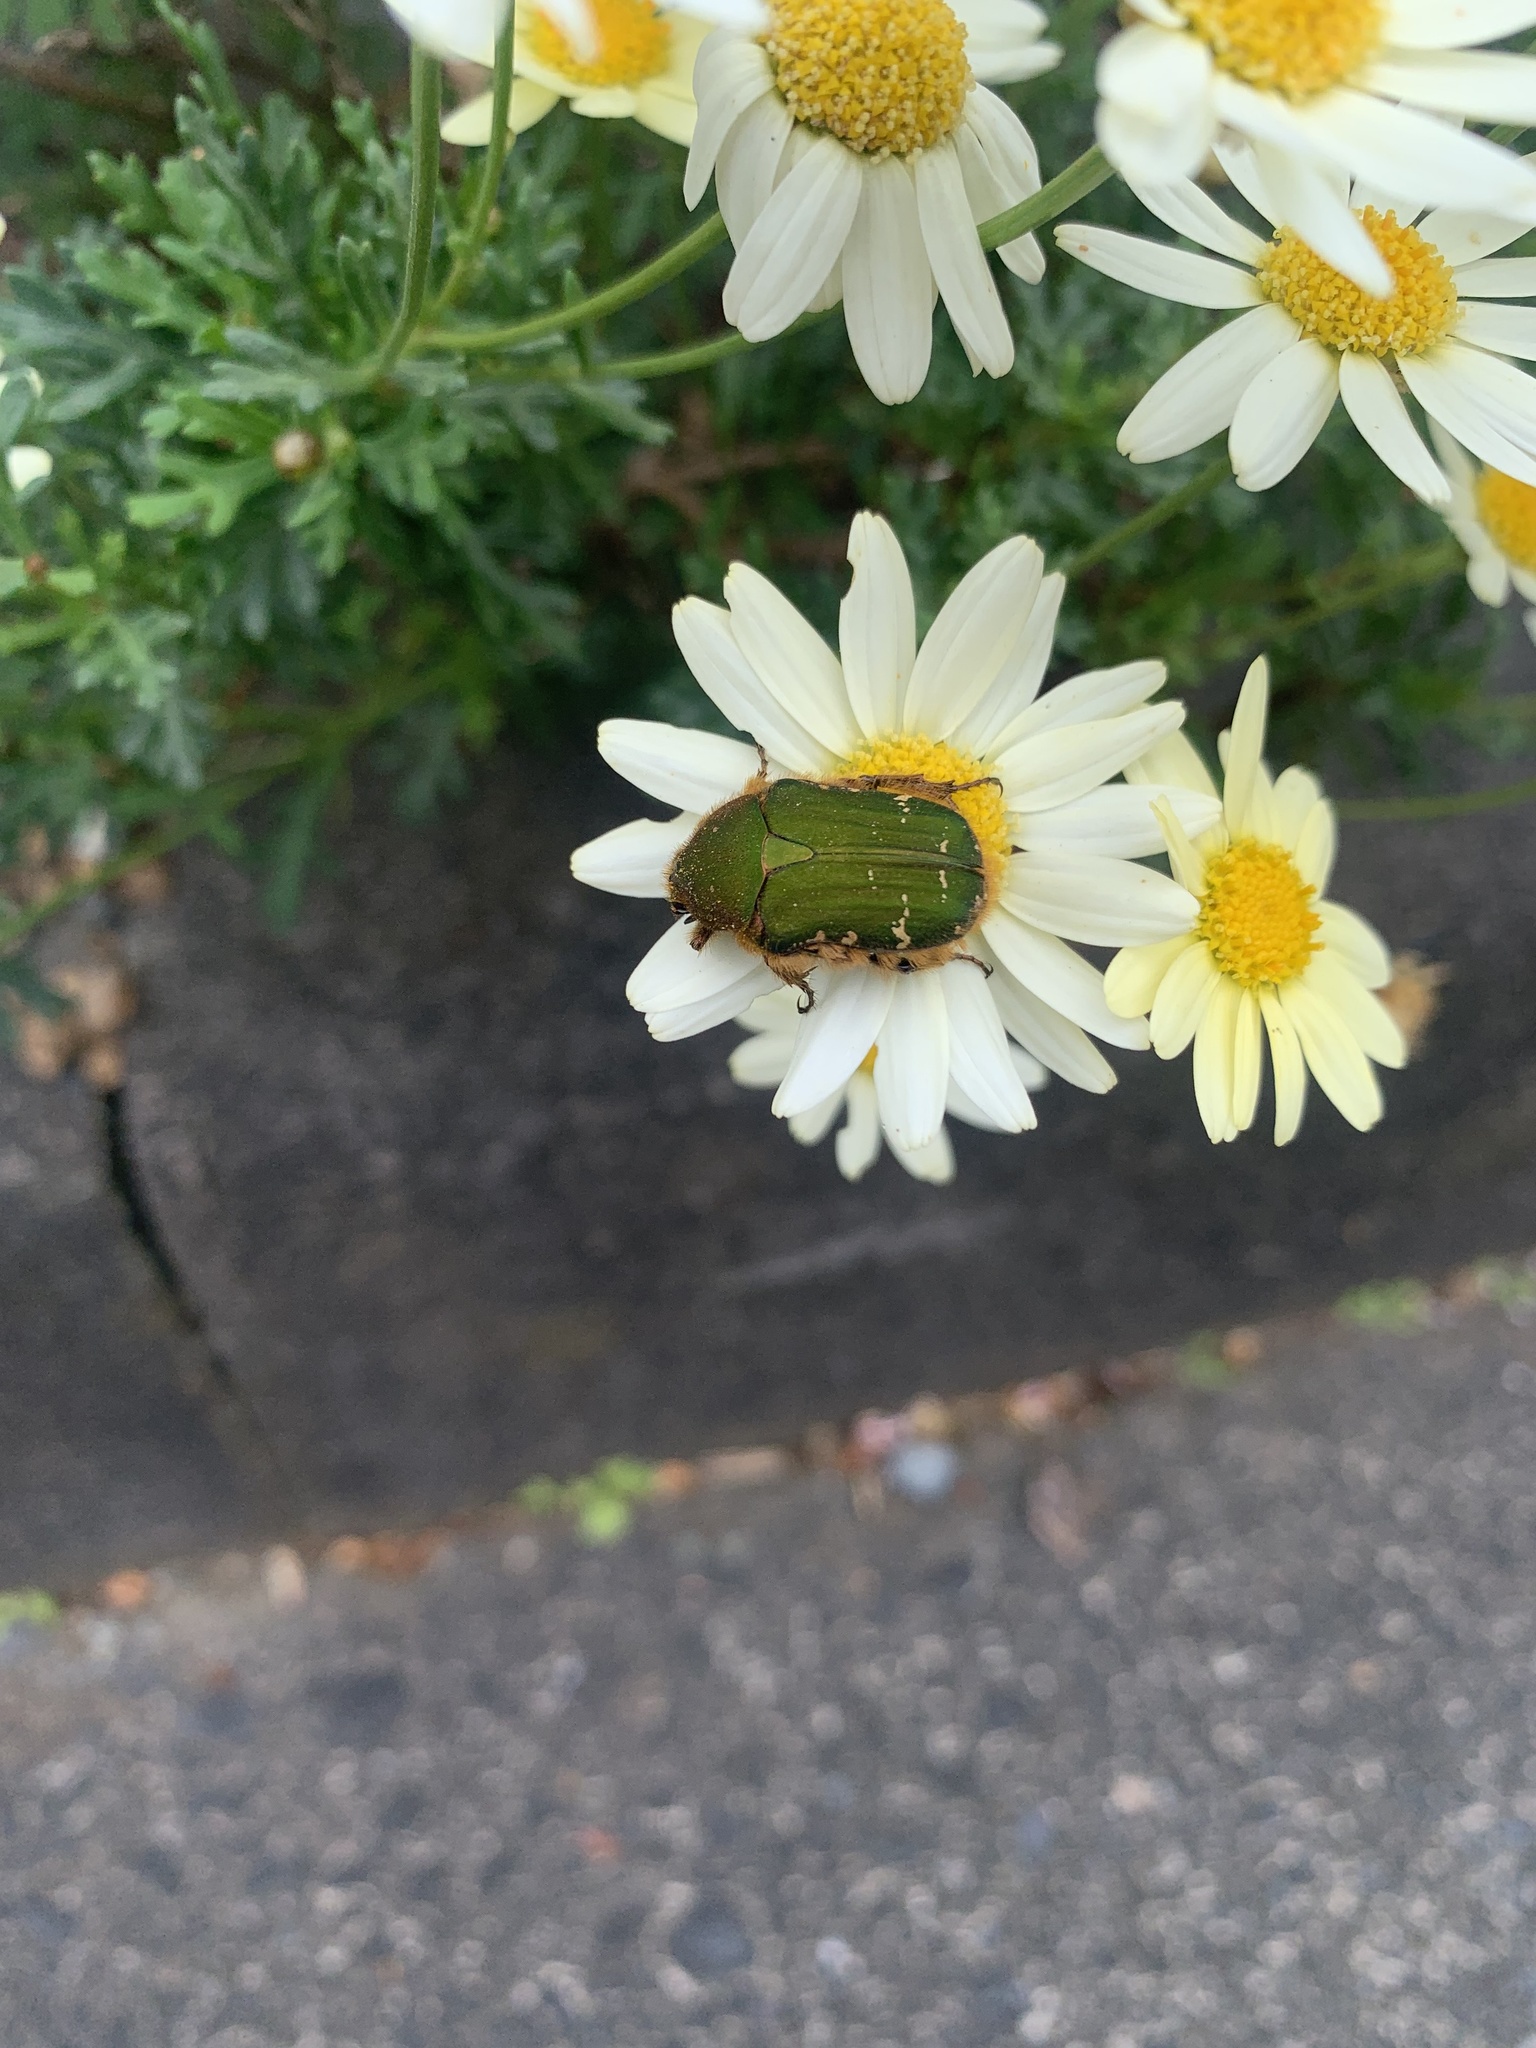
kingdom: Animalia
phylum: Arthropoda
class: Insecta
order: Coleoptera
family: Scarabaeidae
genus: Cetonia
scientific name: Cetonia pilifera
